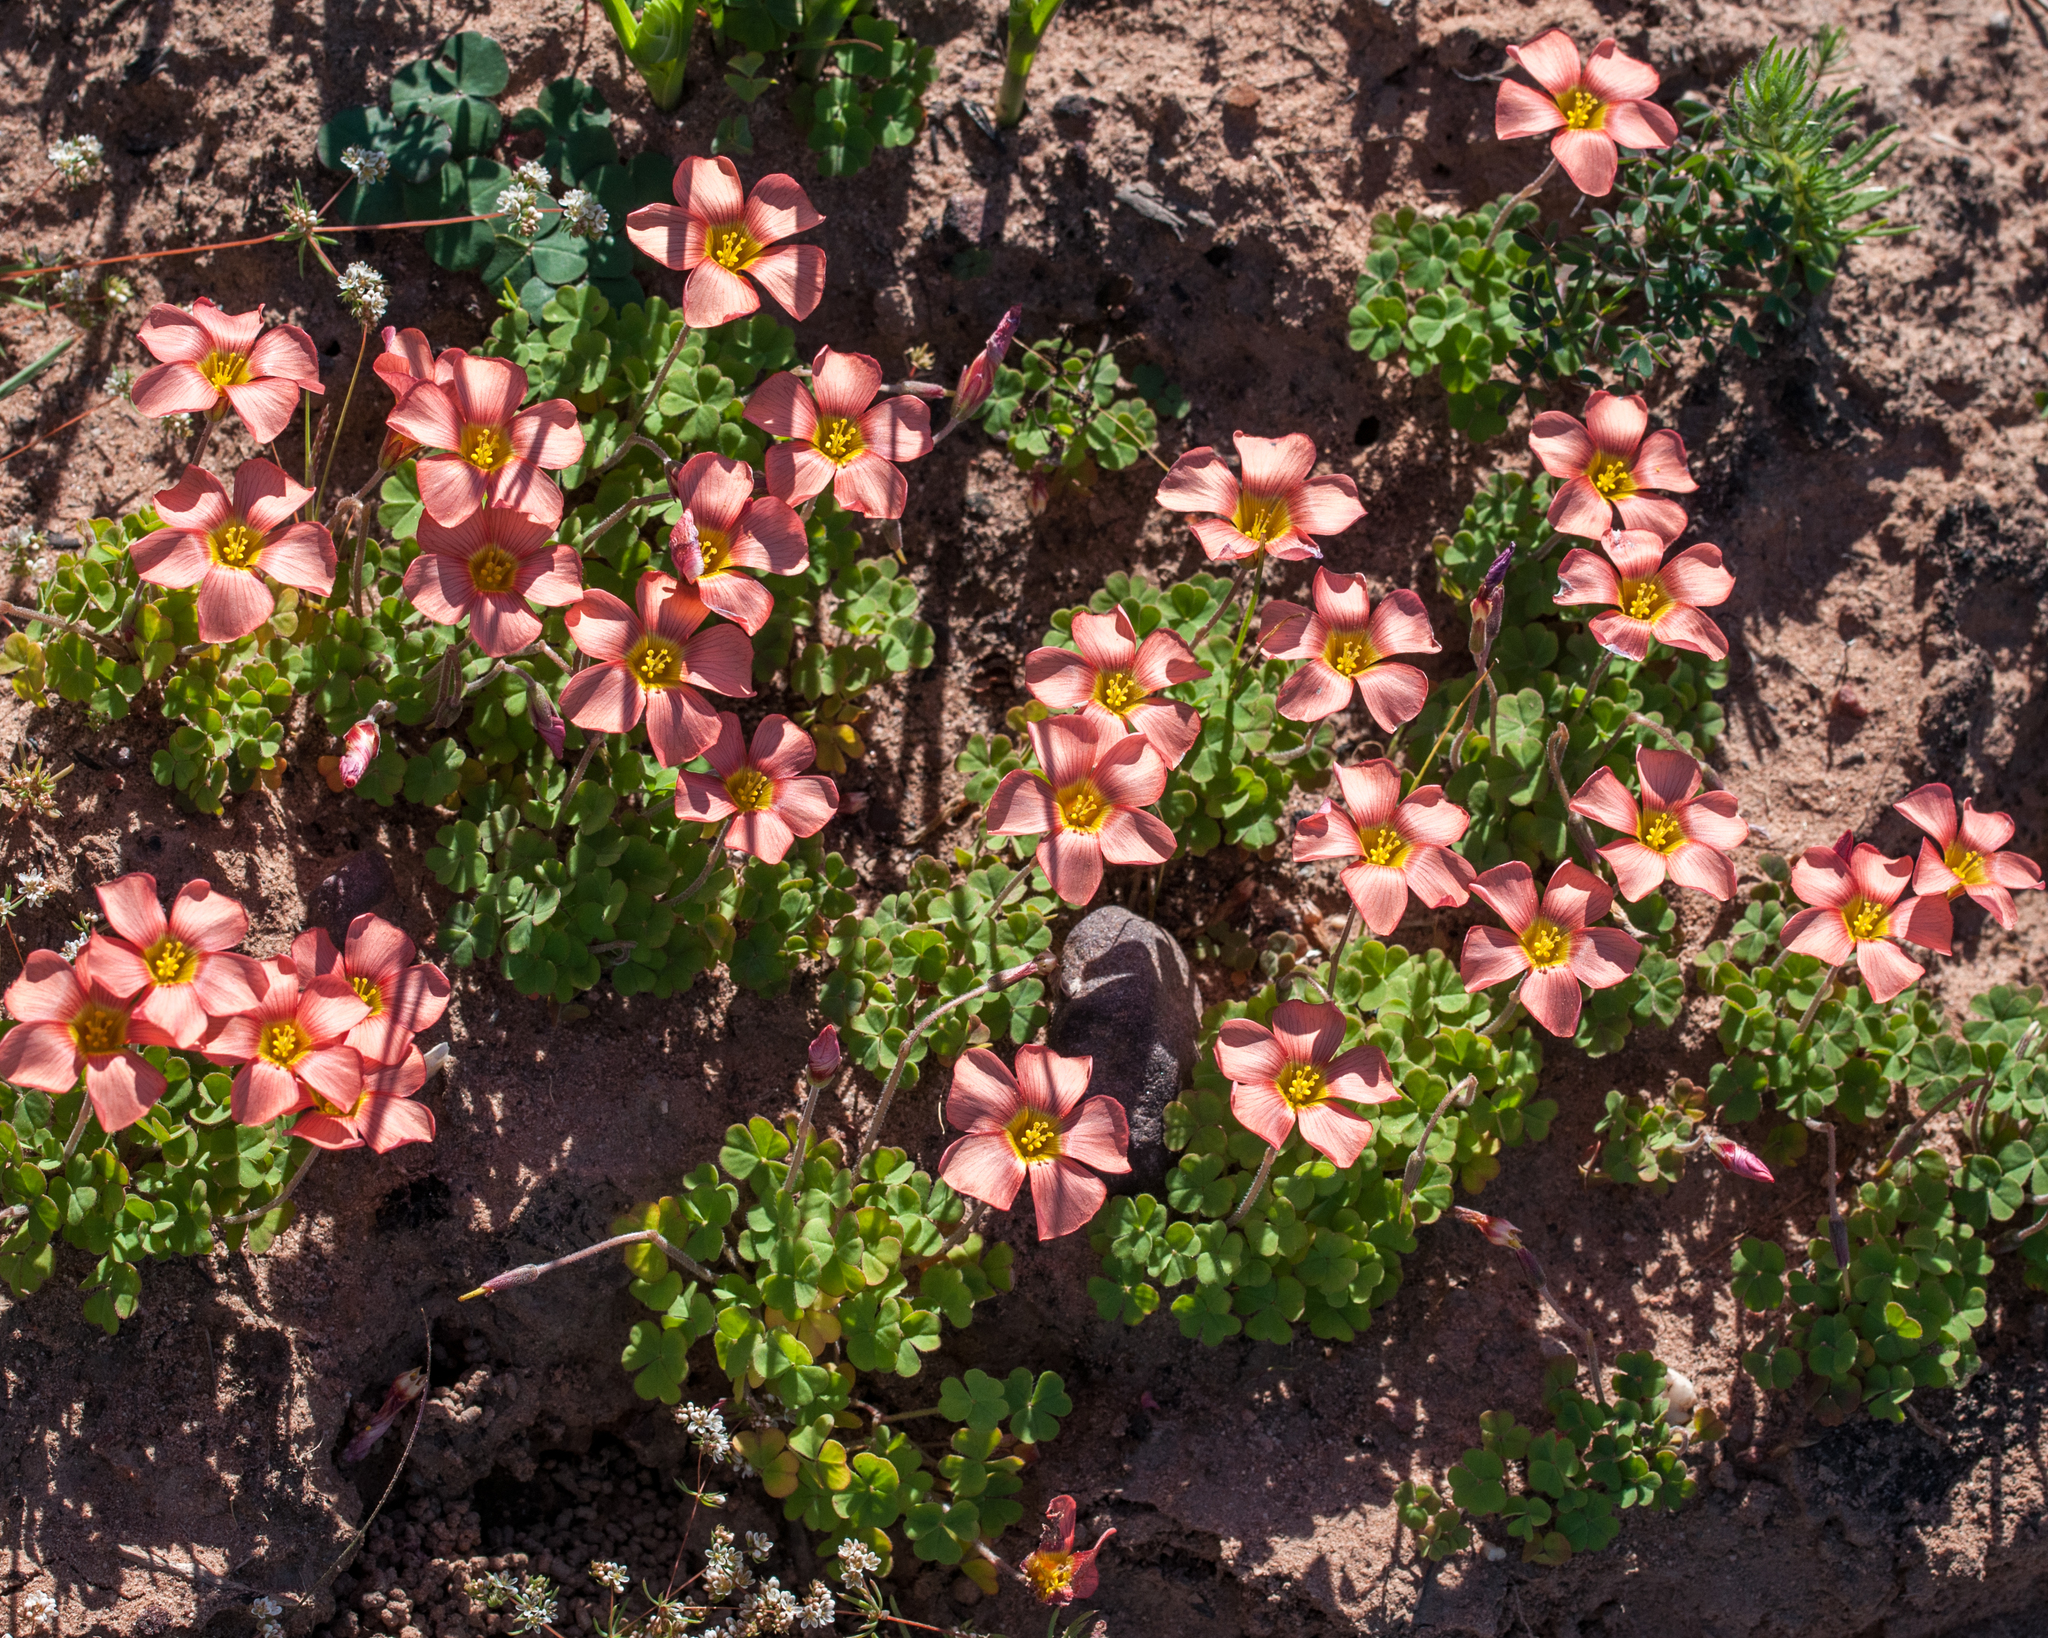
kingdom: Plantae
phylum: Tracheophyta
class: Magnoliopsida
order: Oxalidales
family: Oxalidaceae
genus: Oxalis
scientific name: Oxalis obtusa
